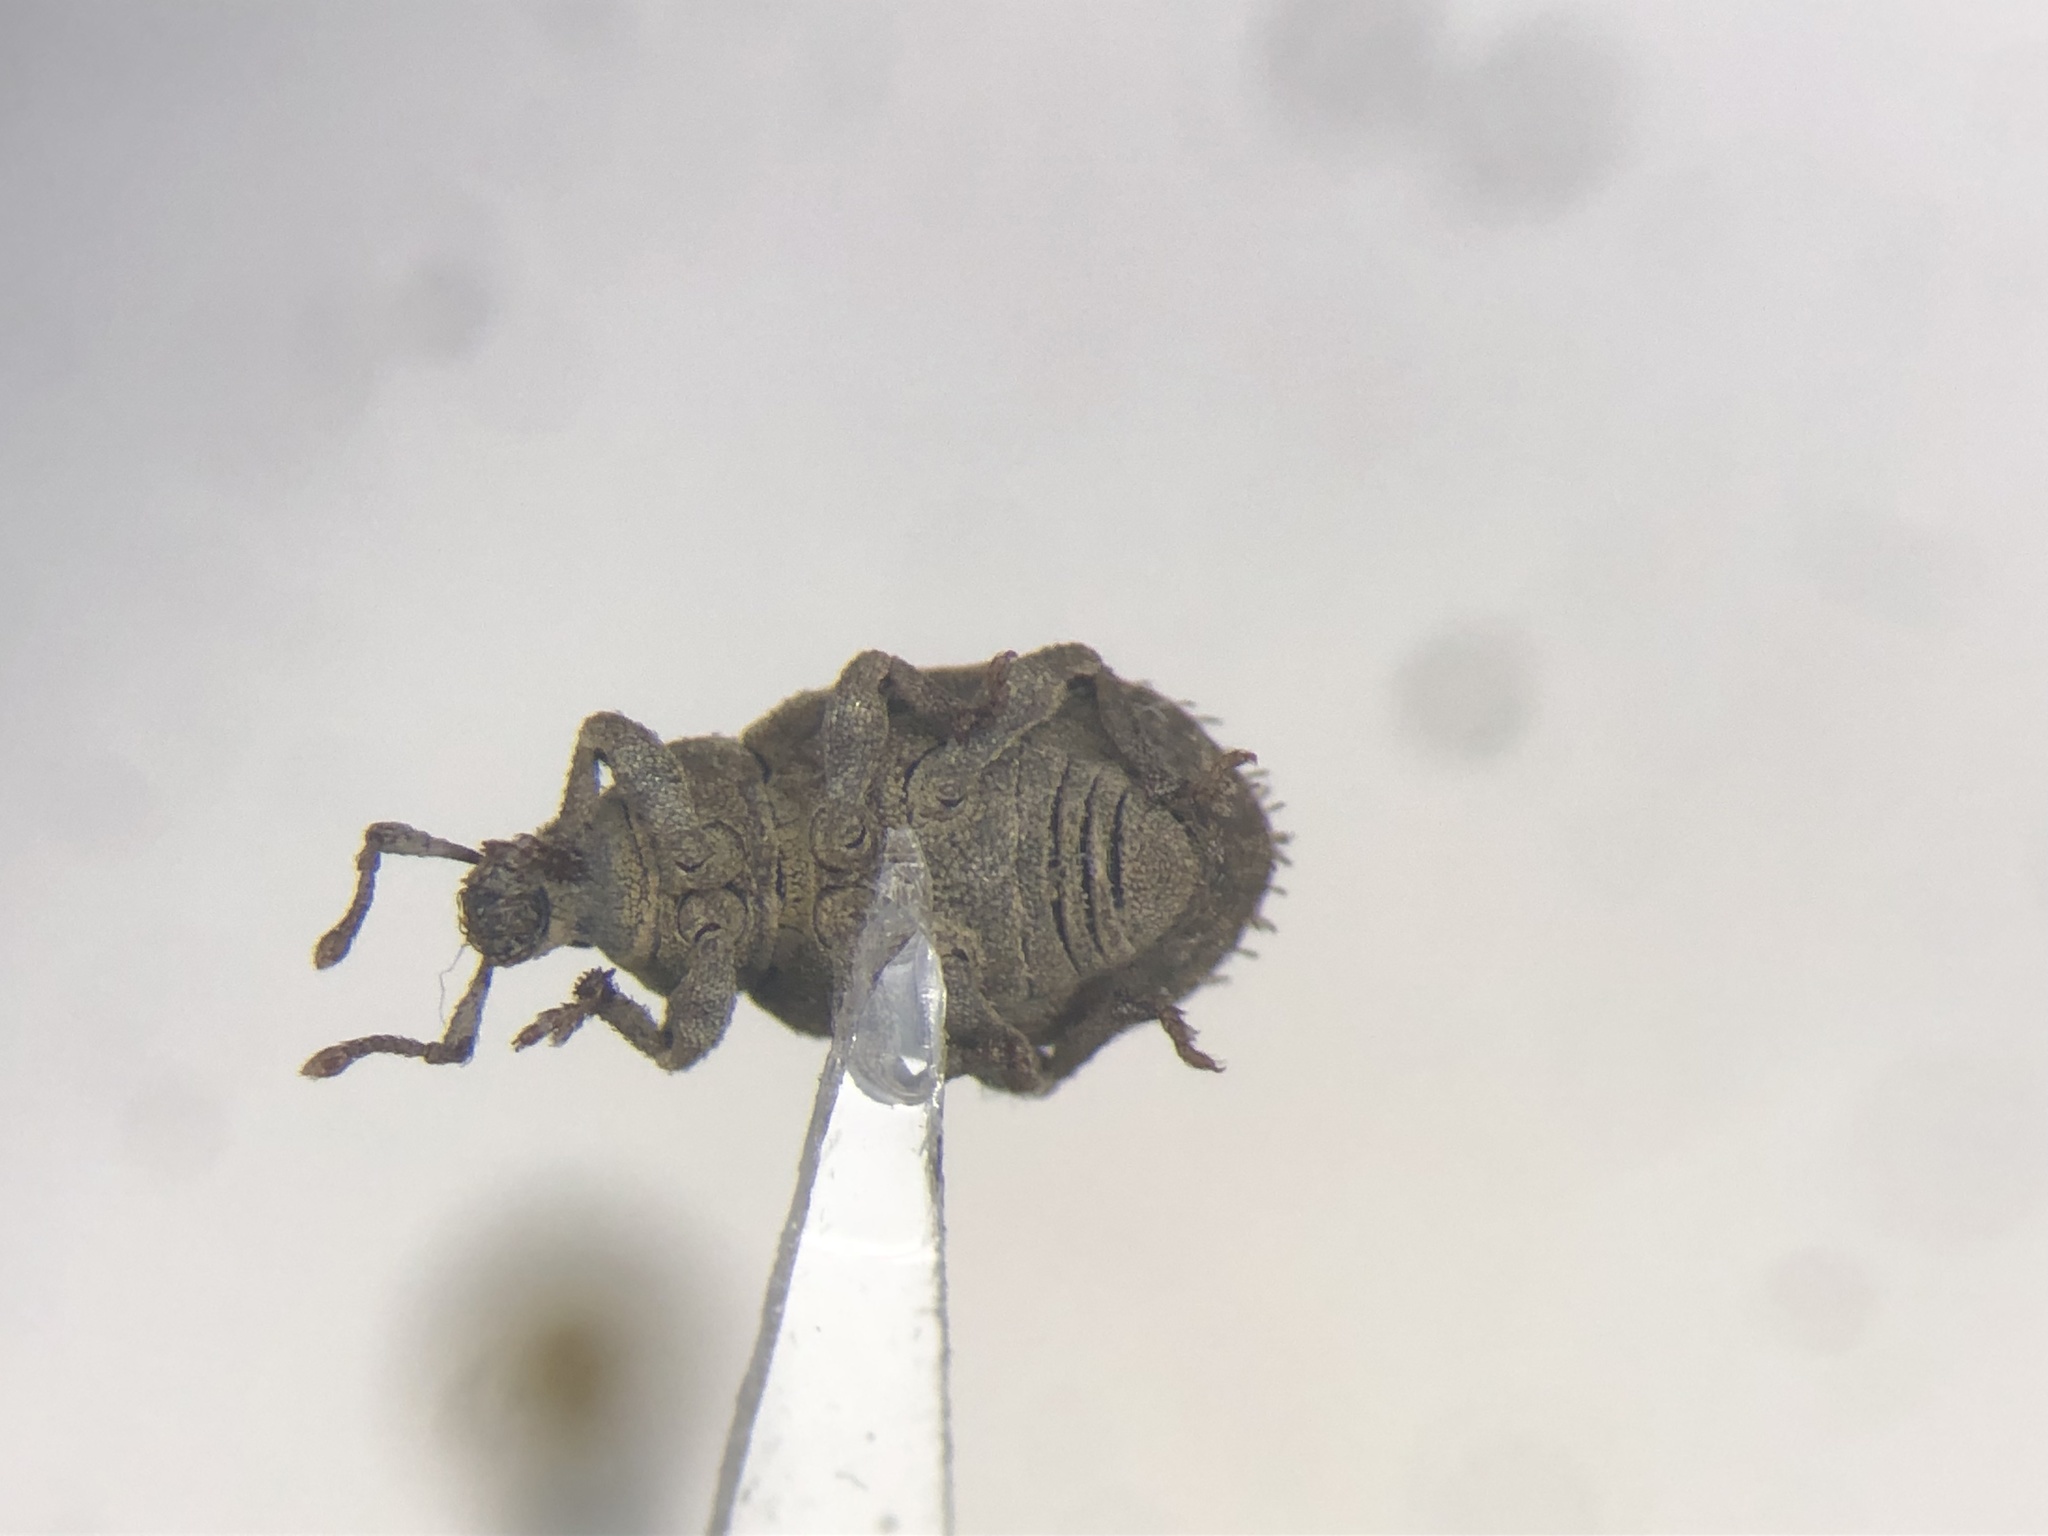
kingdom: Animalia
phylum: Arthropoda
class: Insecta
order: Coleoptera
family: Curculionidae
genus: Romualdius
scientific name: Romualdius scaber
